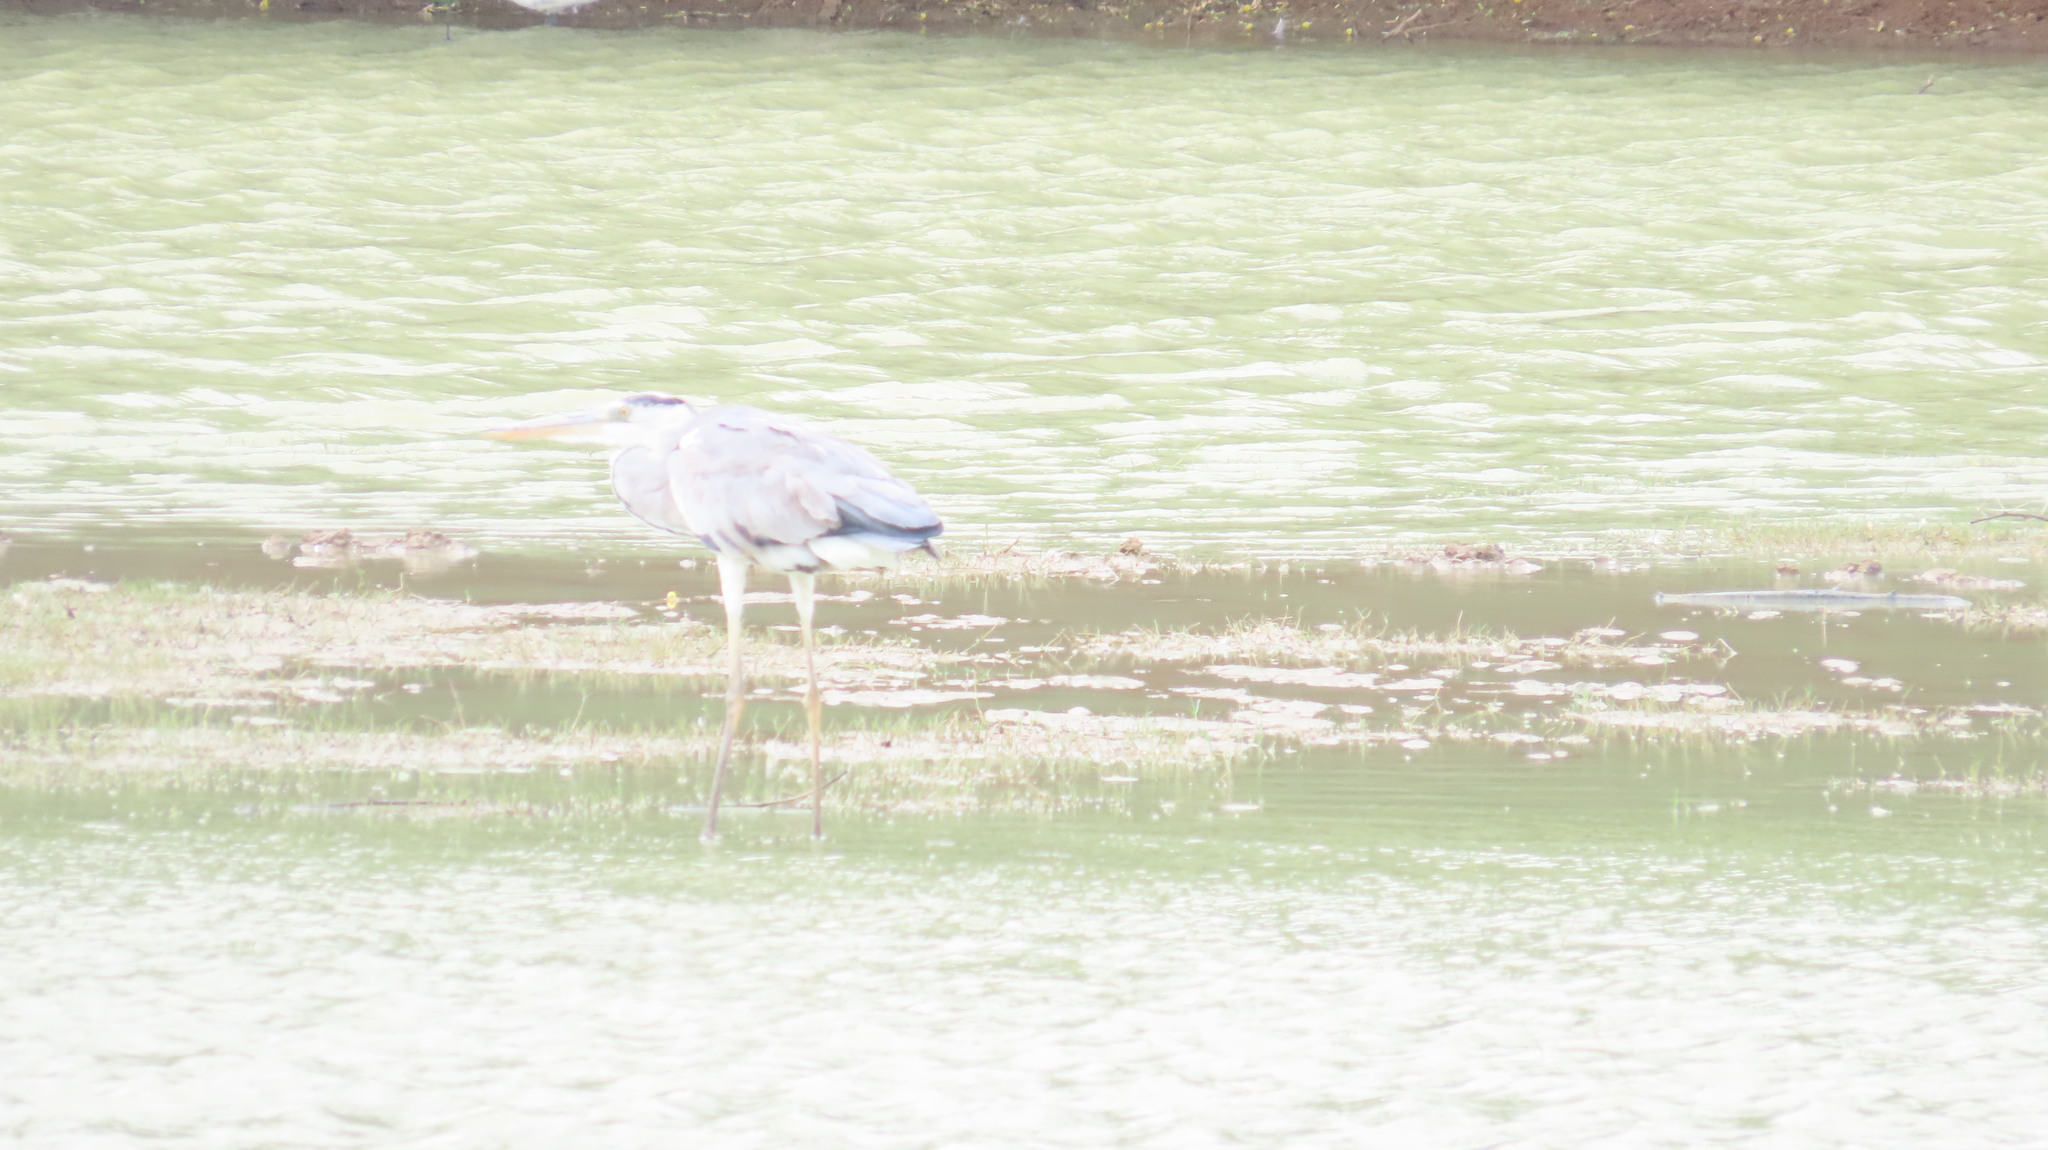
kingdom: Animalia
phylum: Chordata
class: Aves
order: Pelecaniformes
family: Ardeidae
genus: Ardea
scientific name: Ardea cinerea
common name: Grey heron
